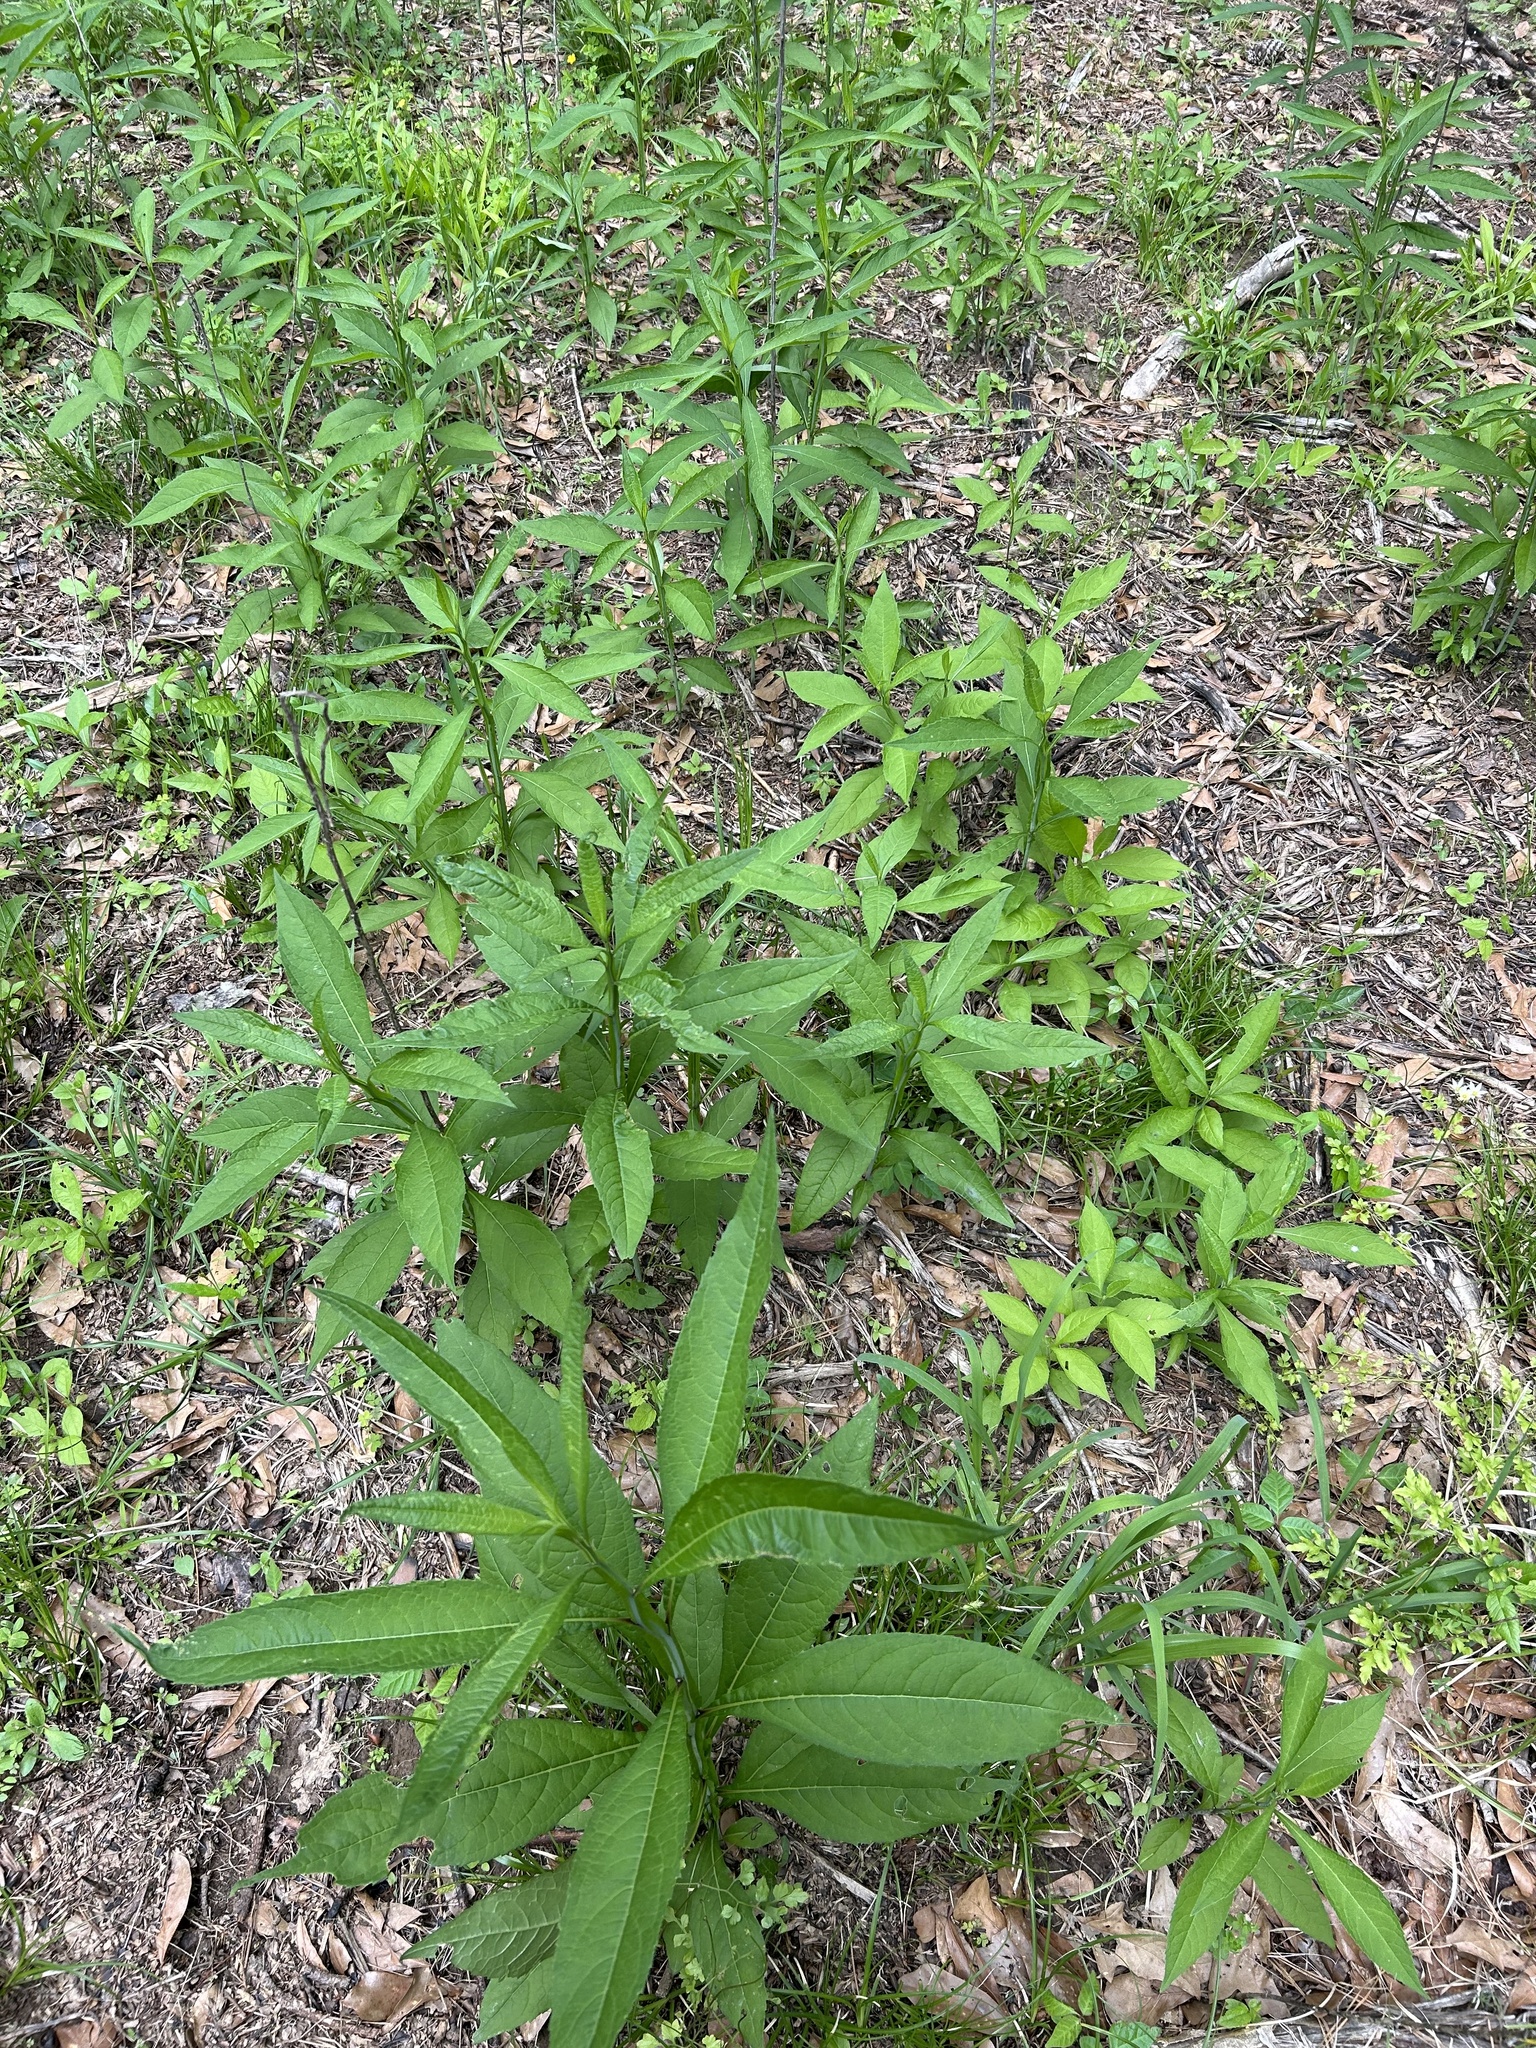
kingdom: Plantae
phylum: Tracheophyta
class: Magnoliopsida
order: Asterales
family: Asteraceae
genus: Verbesina
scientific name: Verbesina walteri
